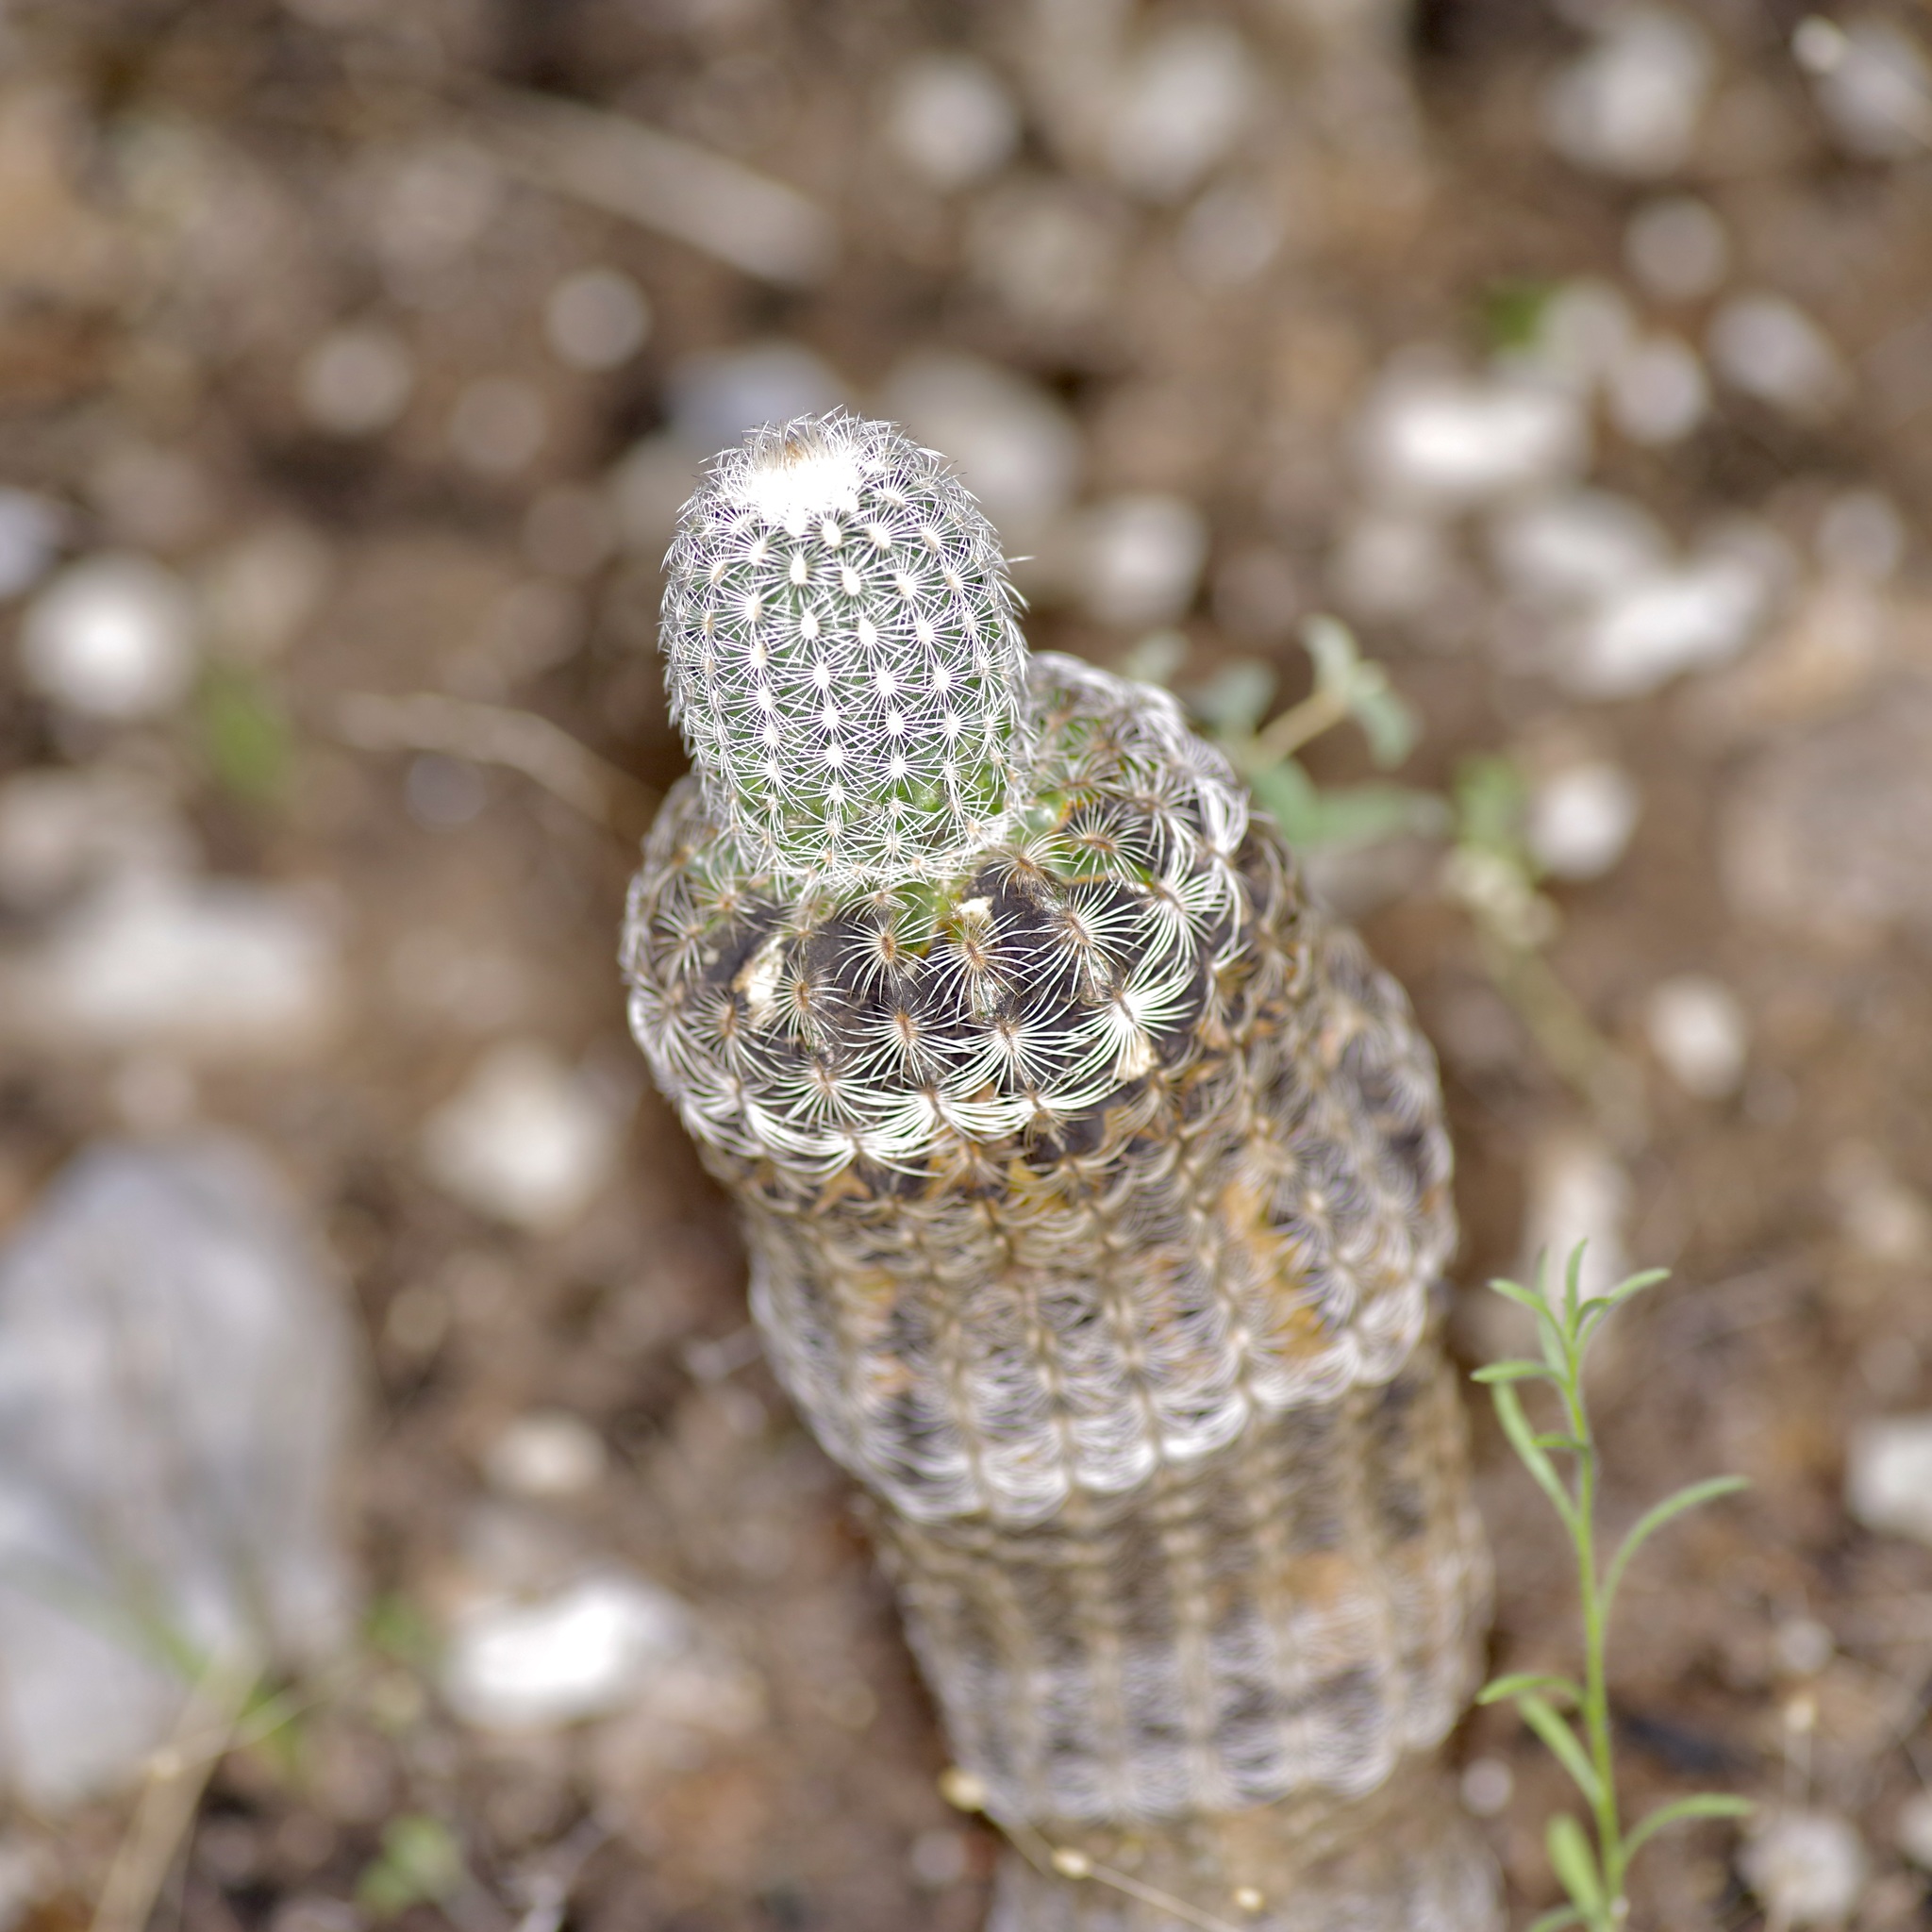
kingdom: Plantae
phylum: Tracheophyta
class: Magnoliopsida
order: Caryophyllales
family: Cactaceae
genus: Echinocereus
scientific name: Echinocereus reichenbachii
